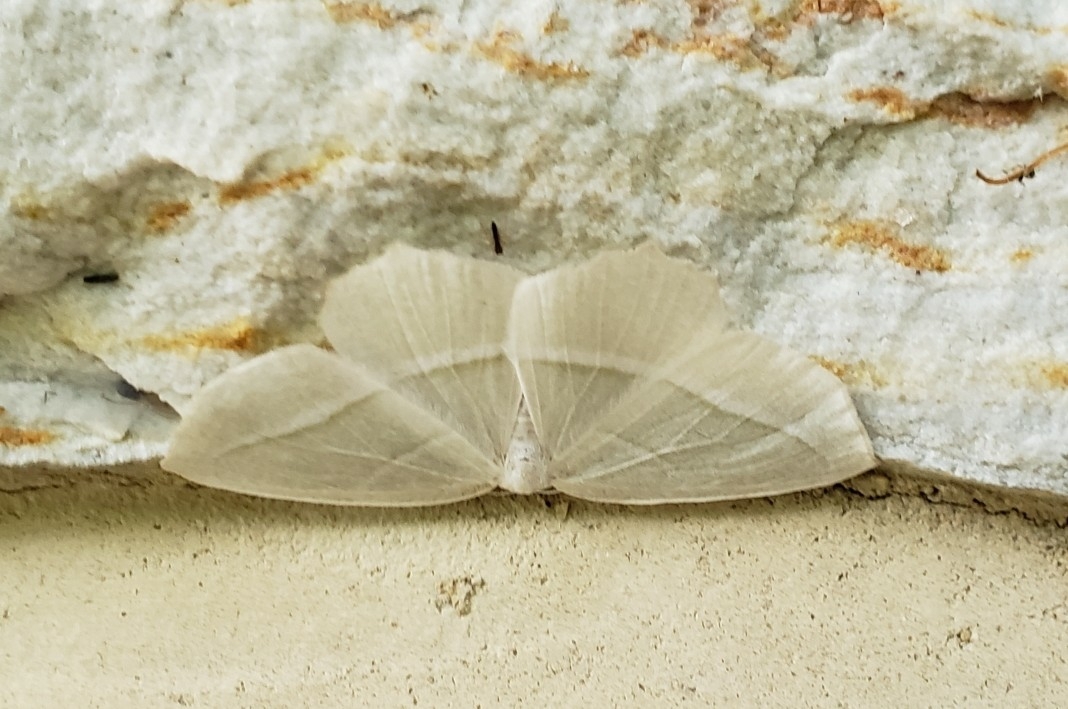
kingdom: Animalia
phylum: Arthropoda
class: Insecta
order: Lepidoptera
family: Geometridae
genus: Campaea
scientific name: Campaea perlata
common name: Fringed looper
